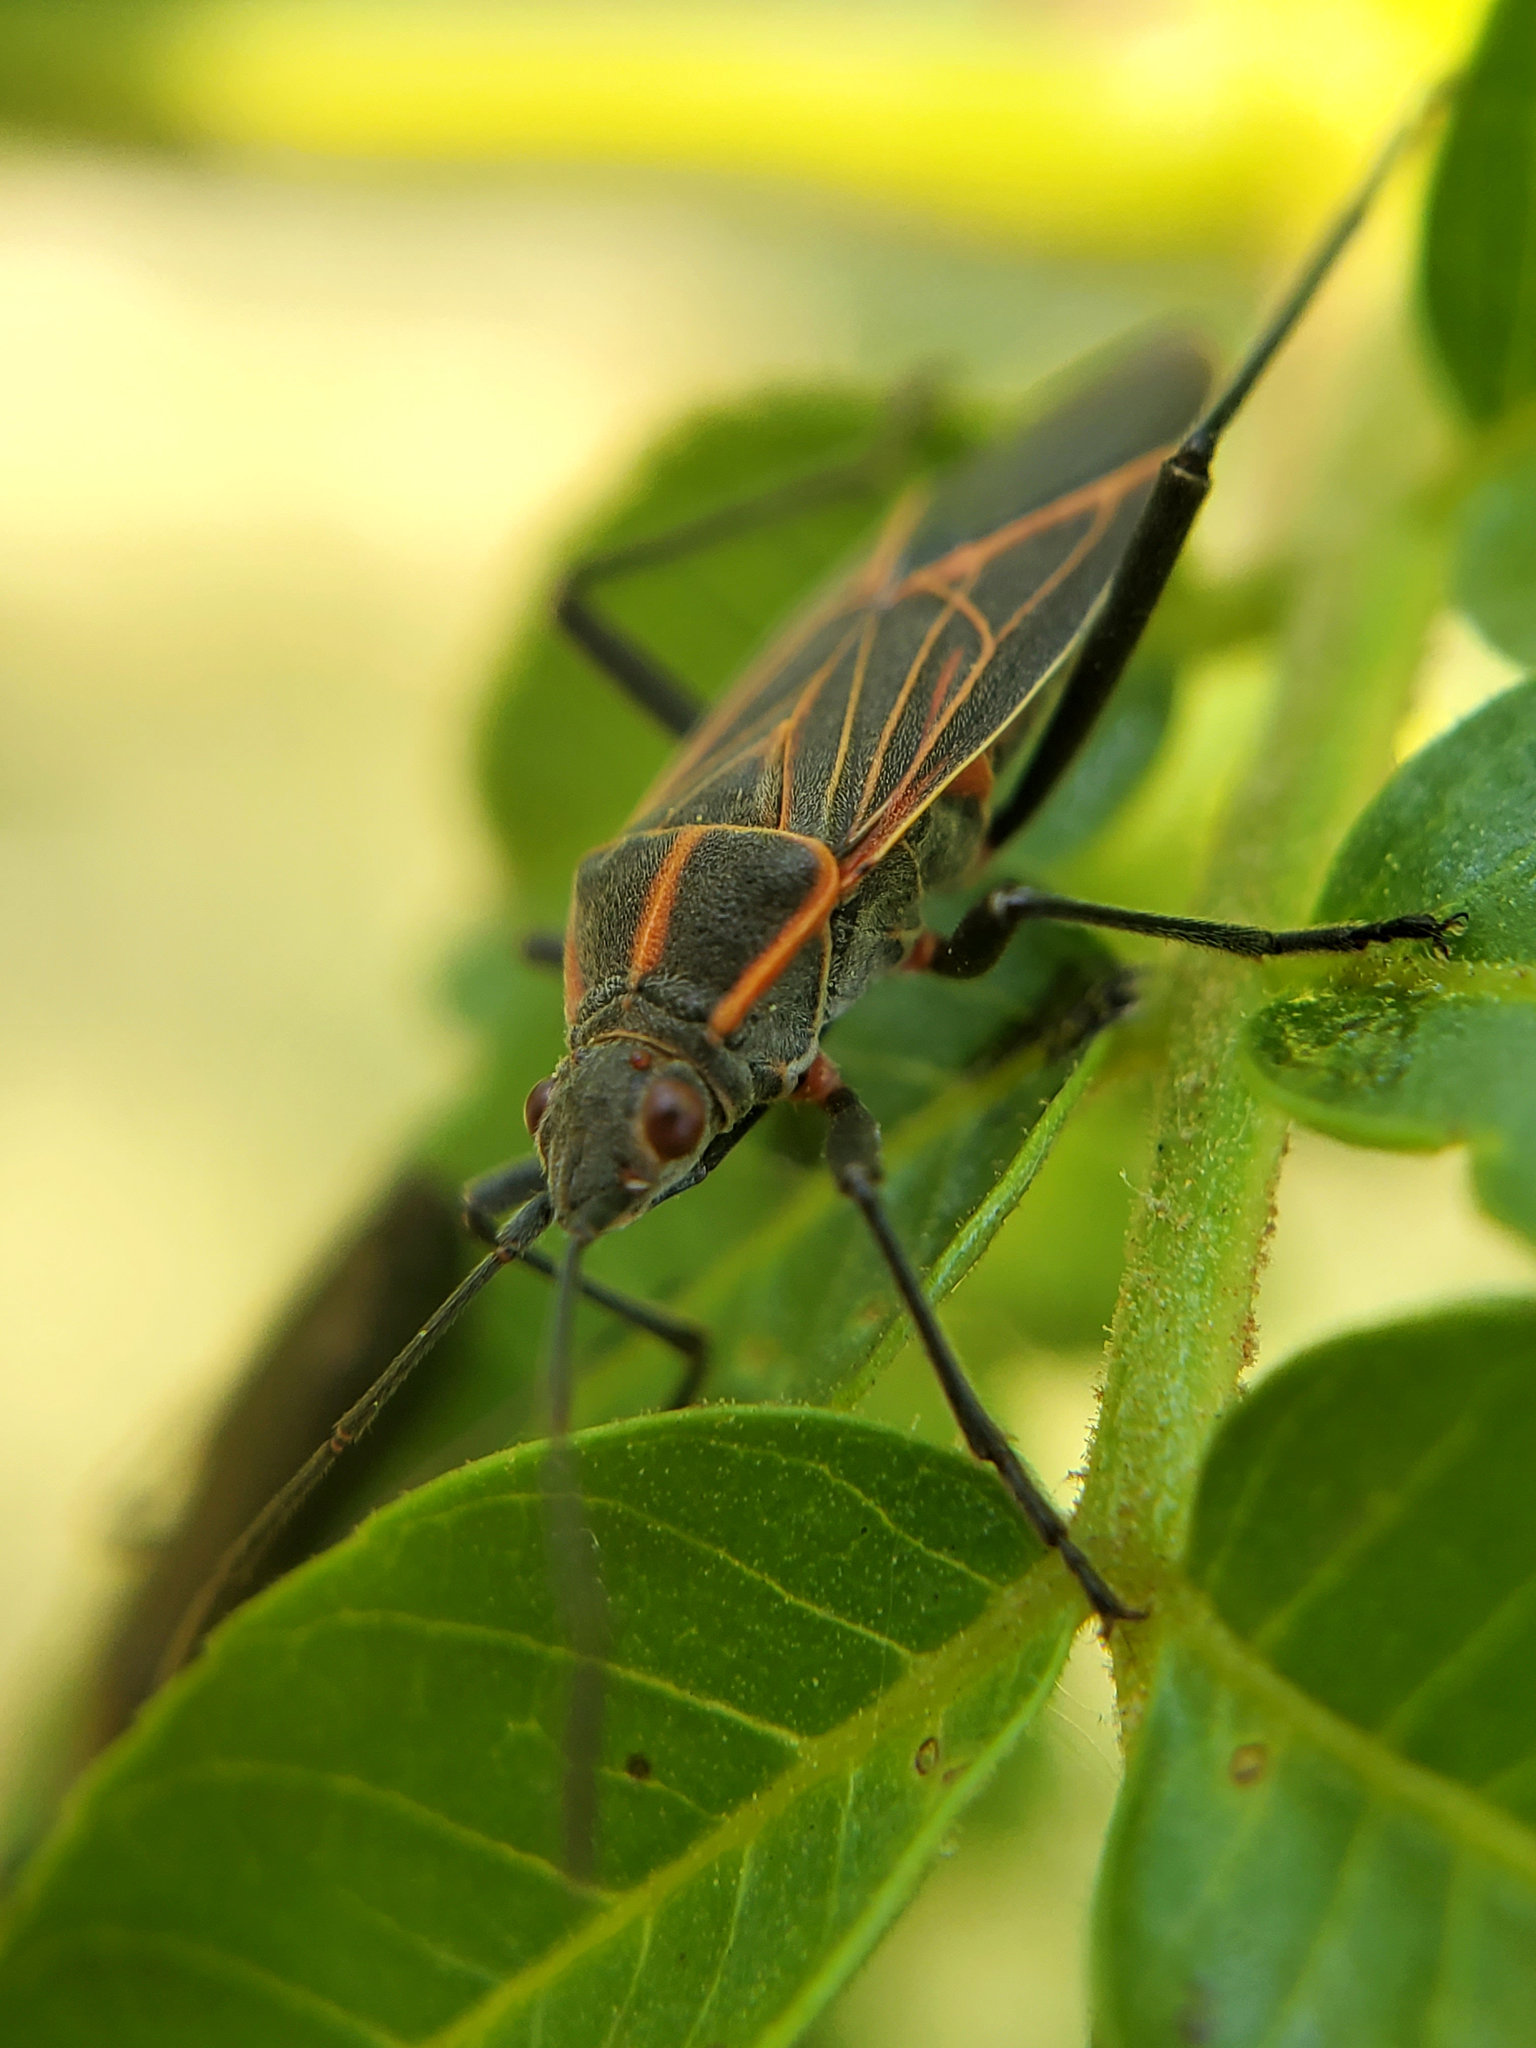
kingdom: Animalia
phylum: Arthropoda
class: Insecta
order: Hemiptera
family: Rhopalidae
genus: Boisea
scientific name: Boisea rubrolineata
